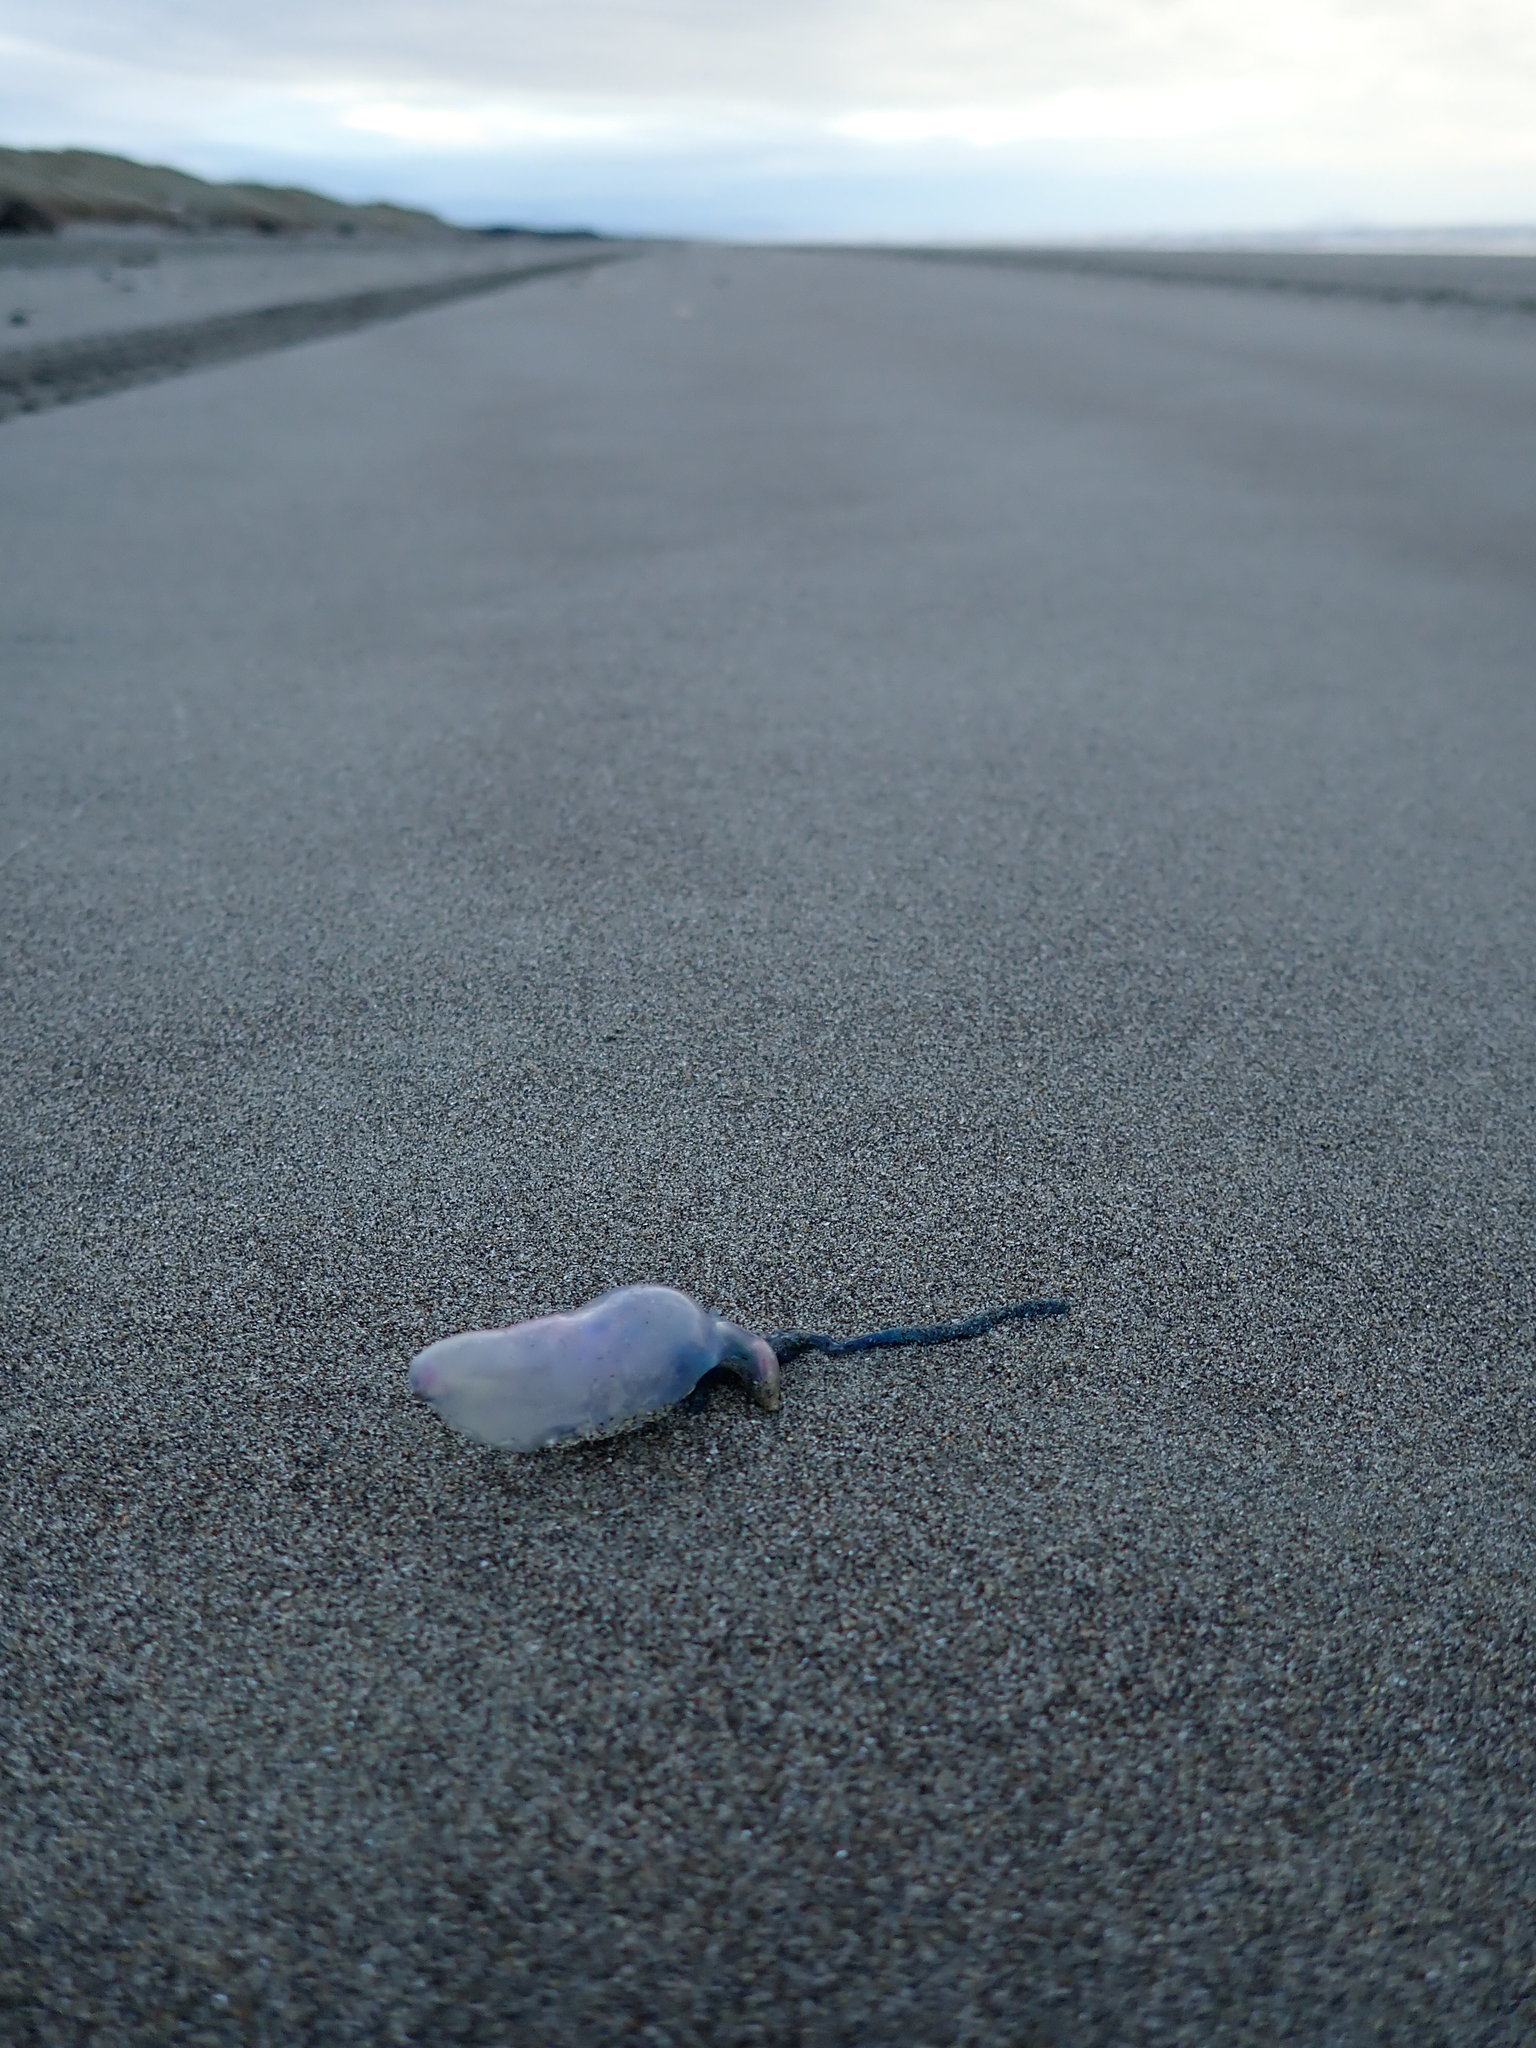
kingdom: Animalia
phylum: Cnidaria
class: Hydrozoa
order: Siphonophorae
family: Physaliidae
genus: Physalia
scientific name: Physalia physalis
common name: Portuguese man-of-war
